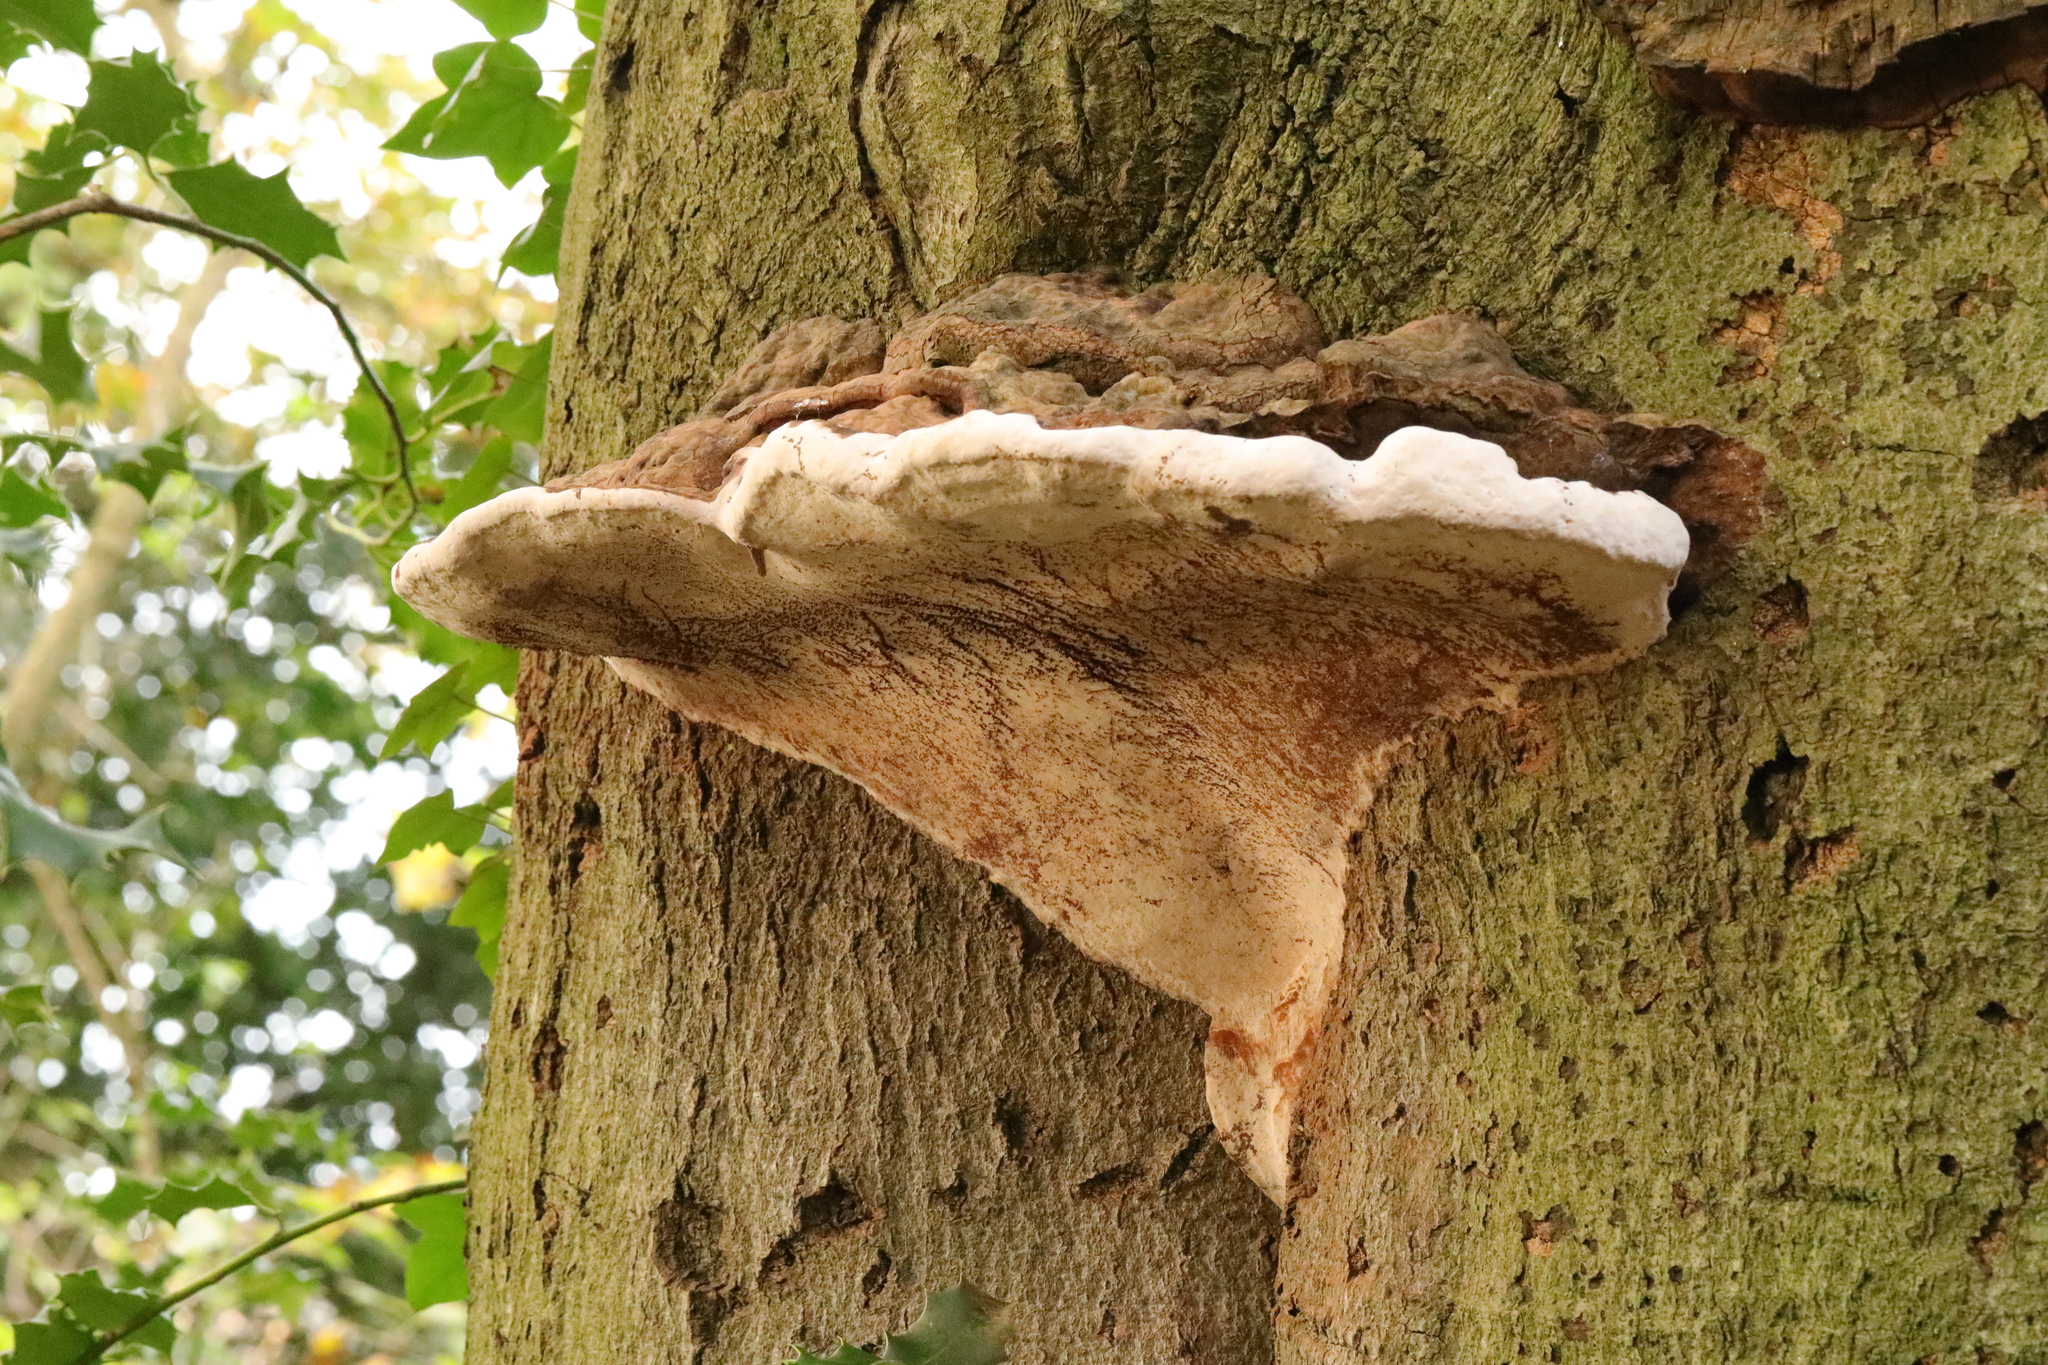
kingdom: Fungi
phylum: Basidiomycota
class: Agaricomycetes
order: Polyporales
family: Polyporaceae
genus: Ganoderma
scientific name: Ganoderma australe
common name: Southern bracket
